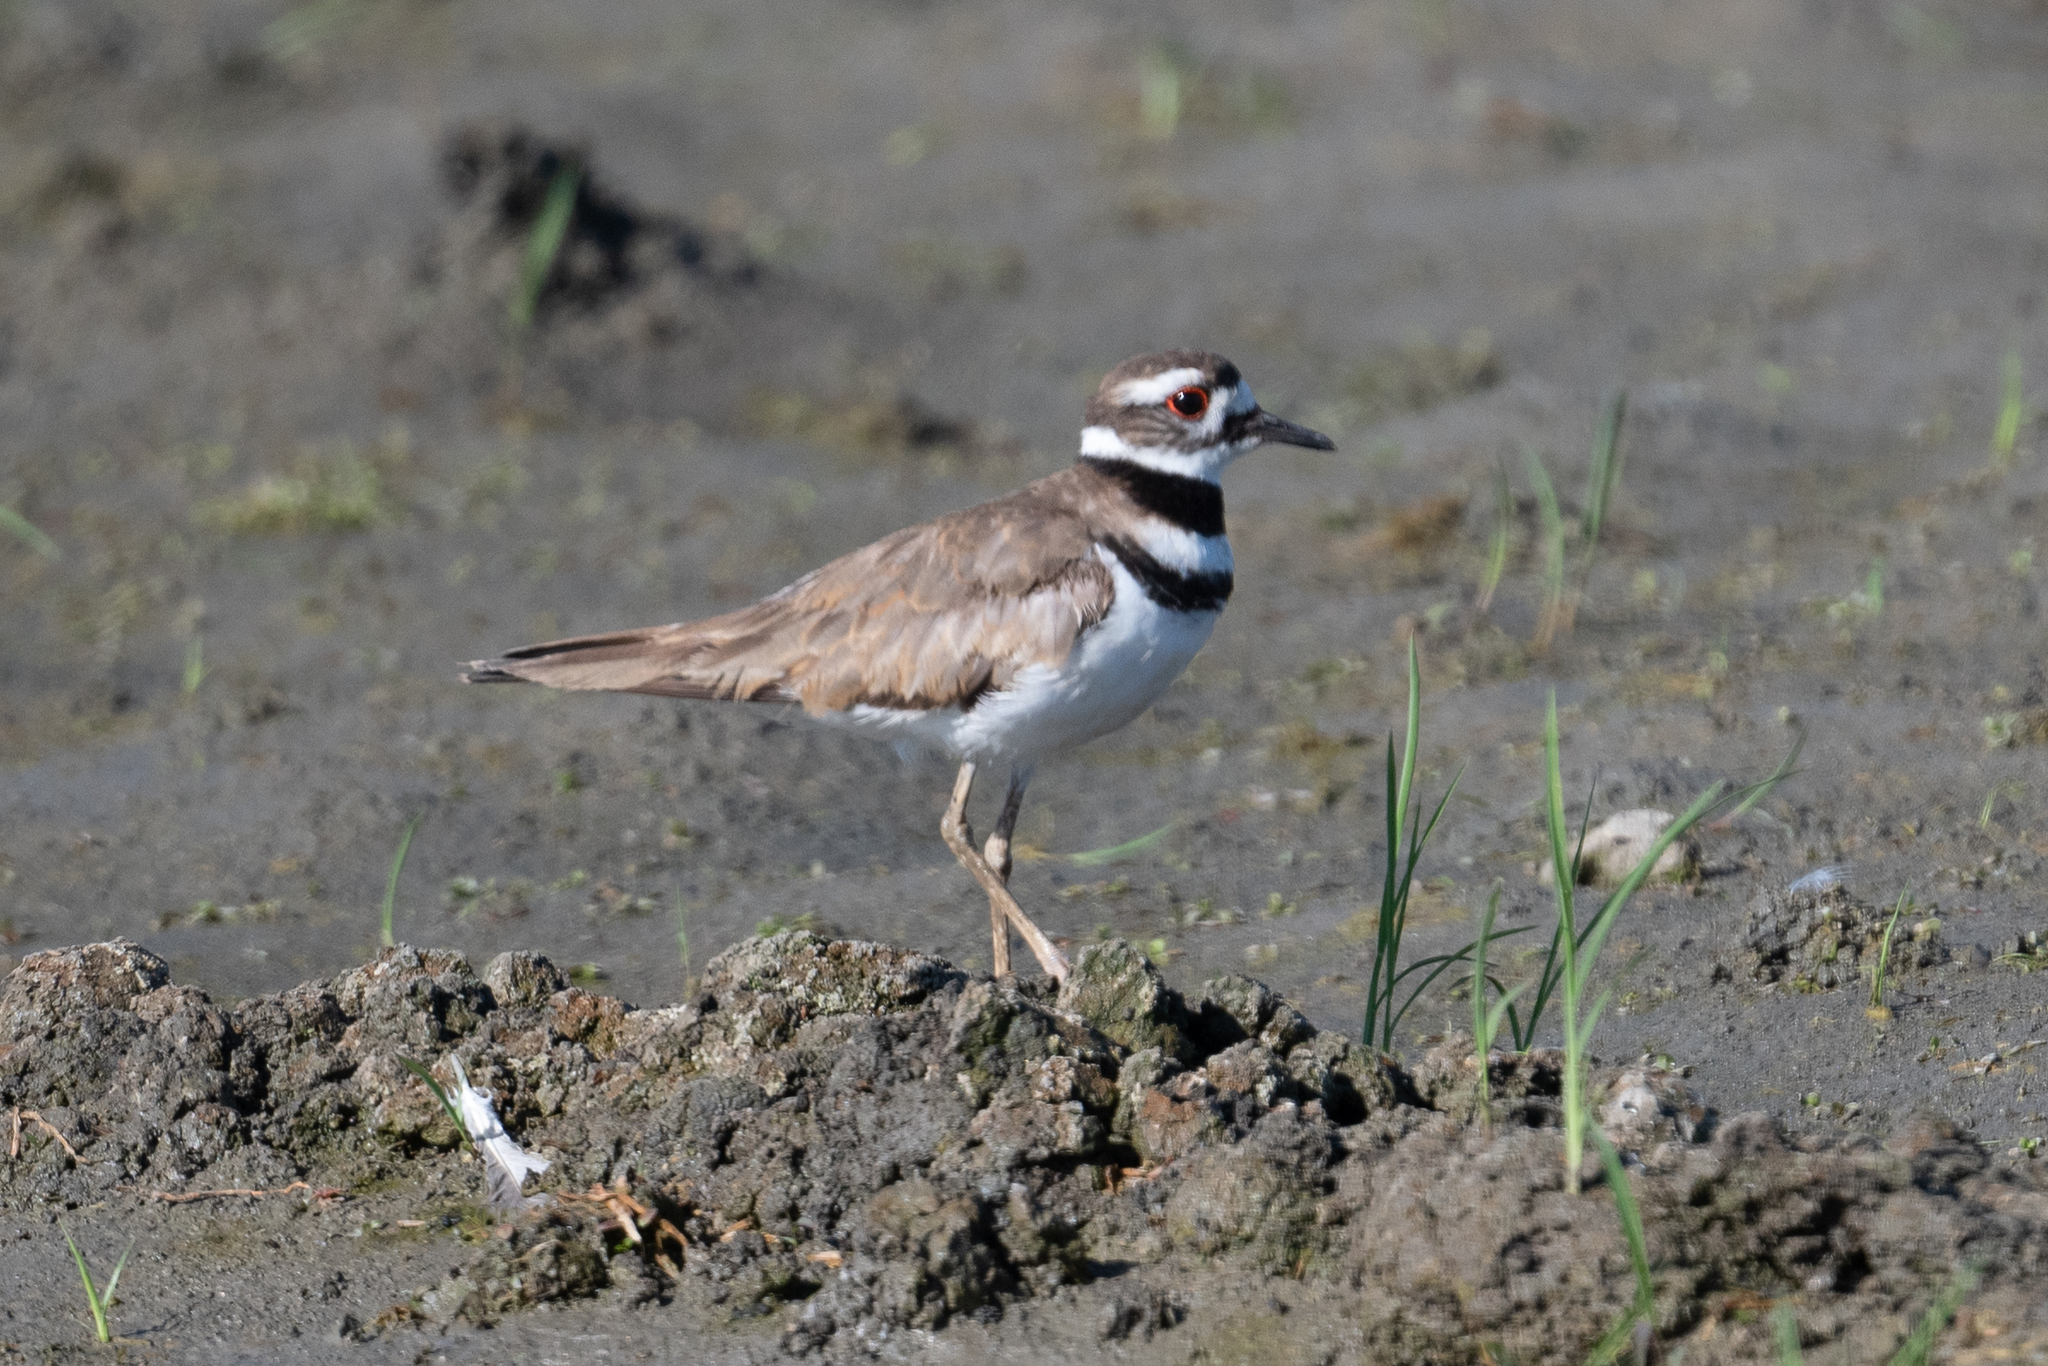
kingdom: Animalia
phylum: Chordata
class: Aves
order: Charadriiformes
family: Charadriidae
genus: Charadrius
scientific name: Charadrius vociferus
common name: Killdeer
